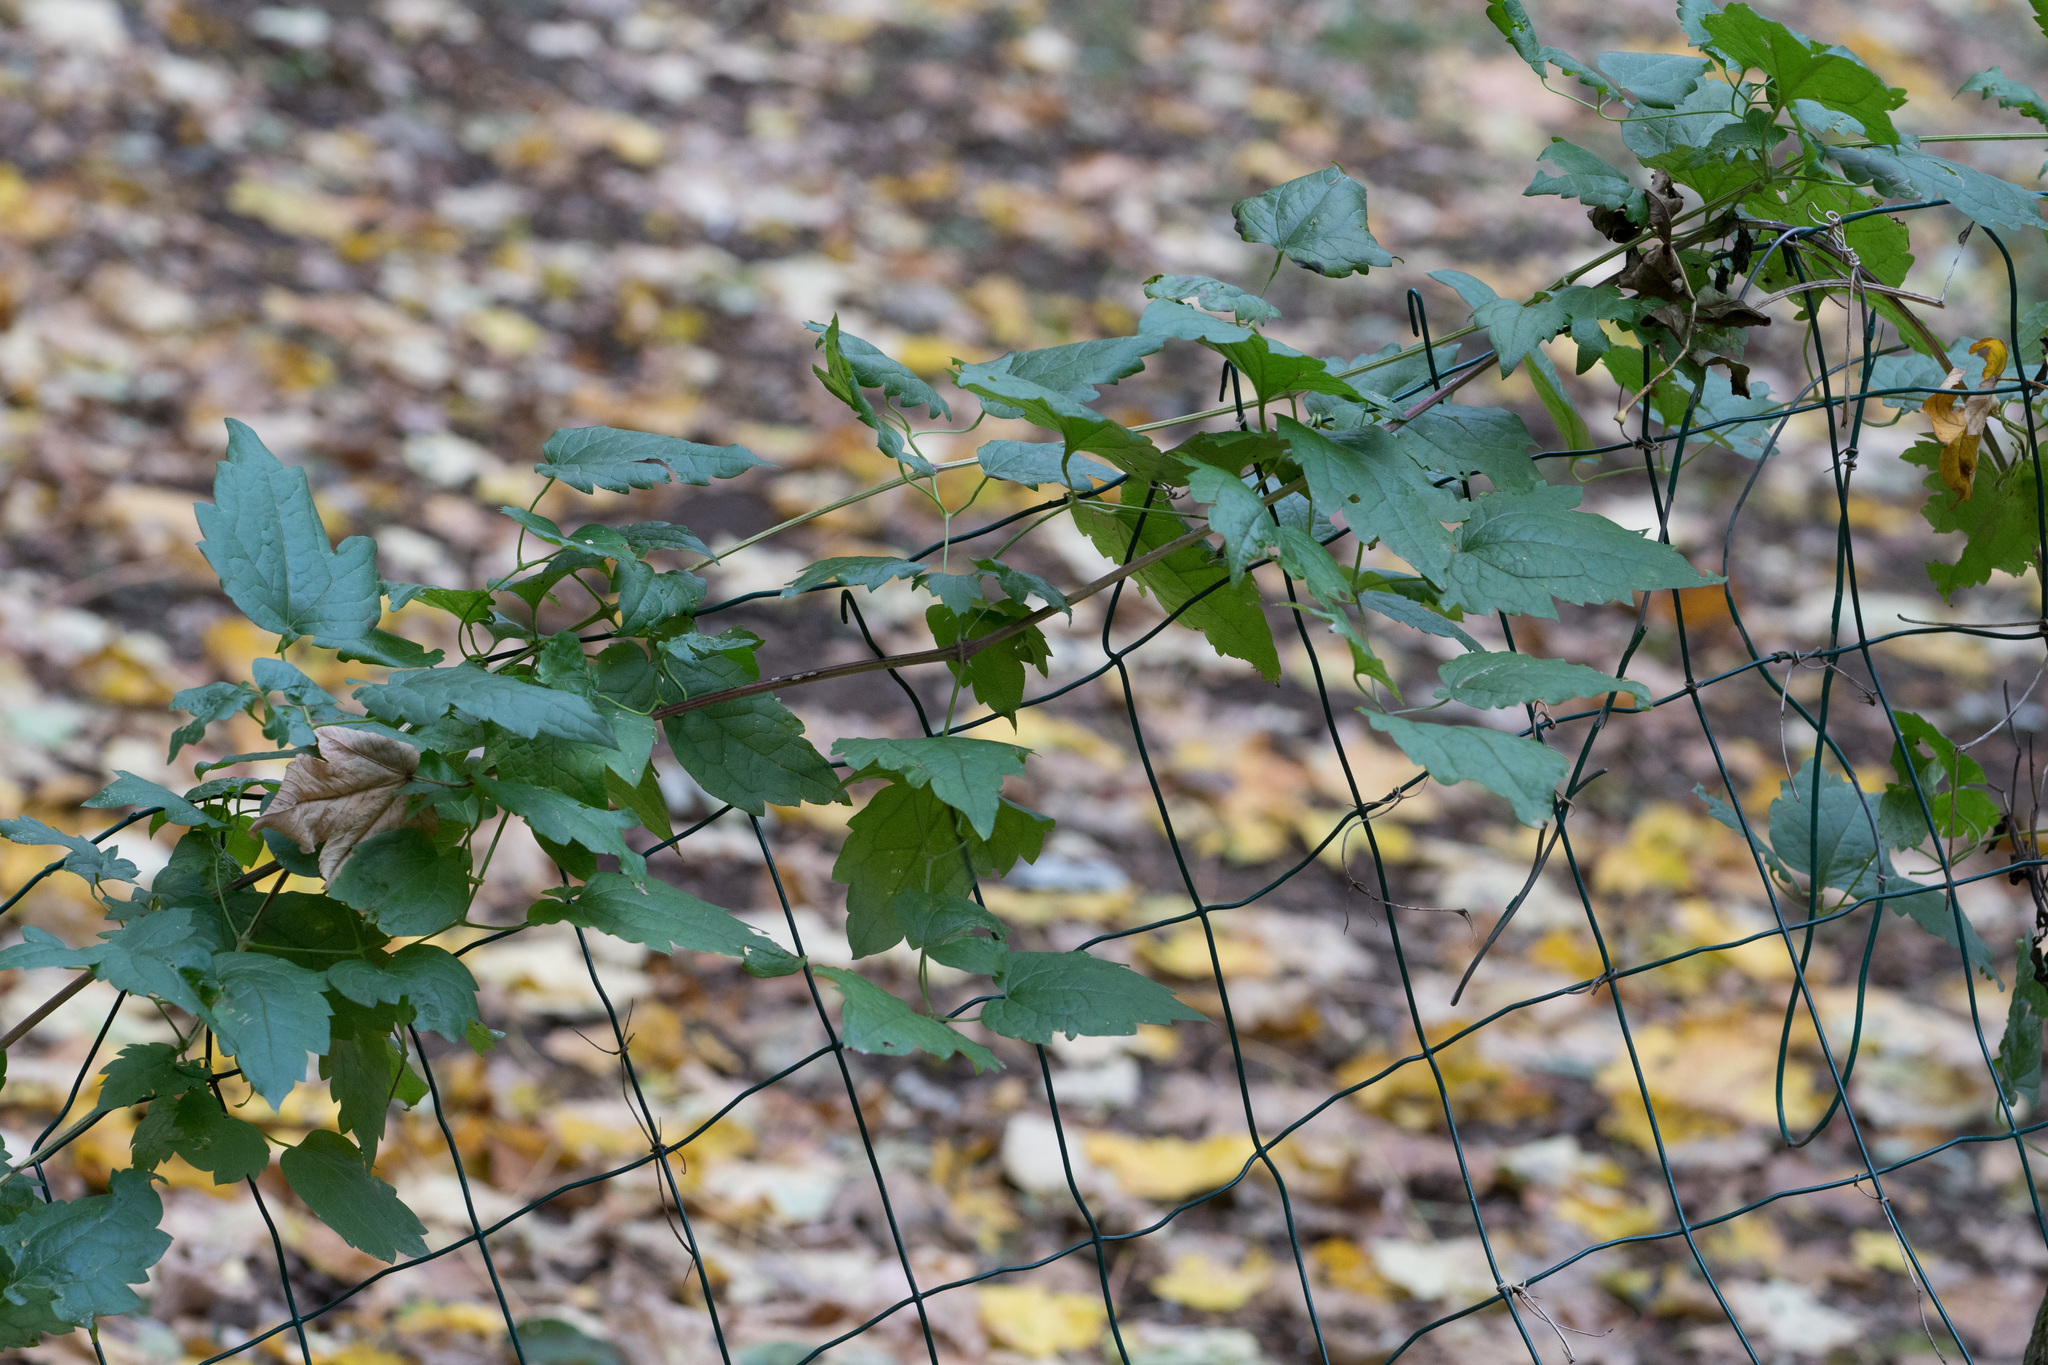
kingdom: Plantae
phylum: Tracheophyta
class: Magnoliopsida
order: Ranunculales
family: Ranunculaceae
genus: Clematis
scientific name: Clematis vitalba
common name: Evergreen clematis
